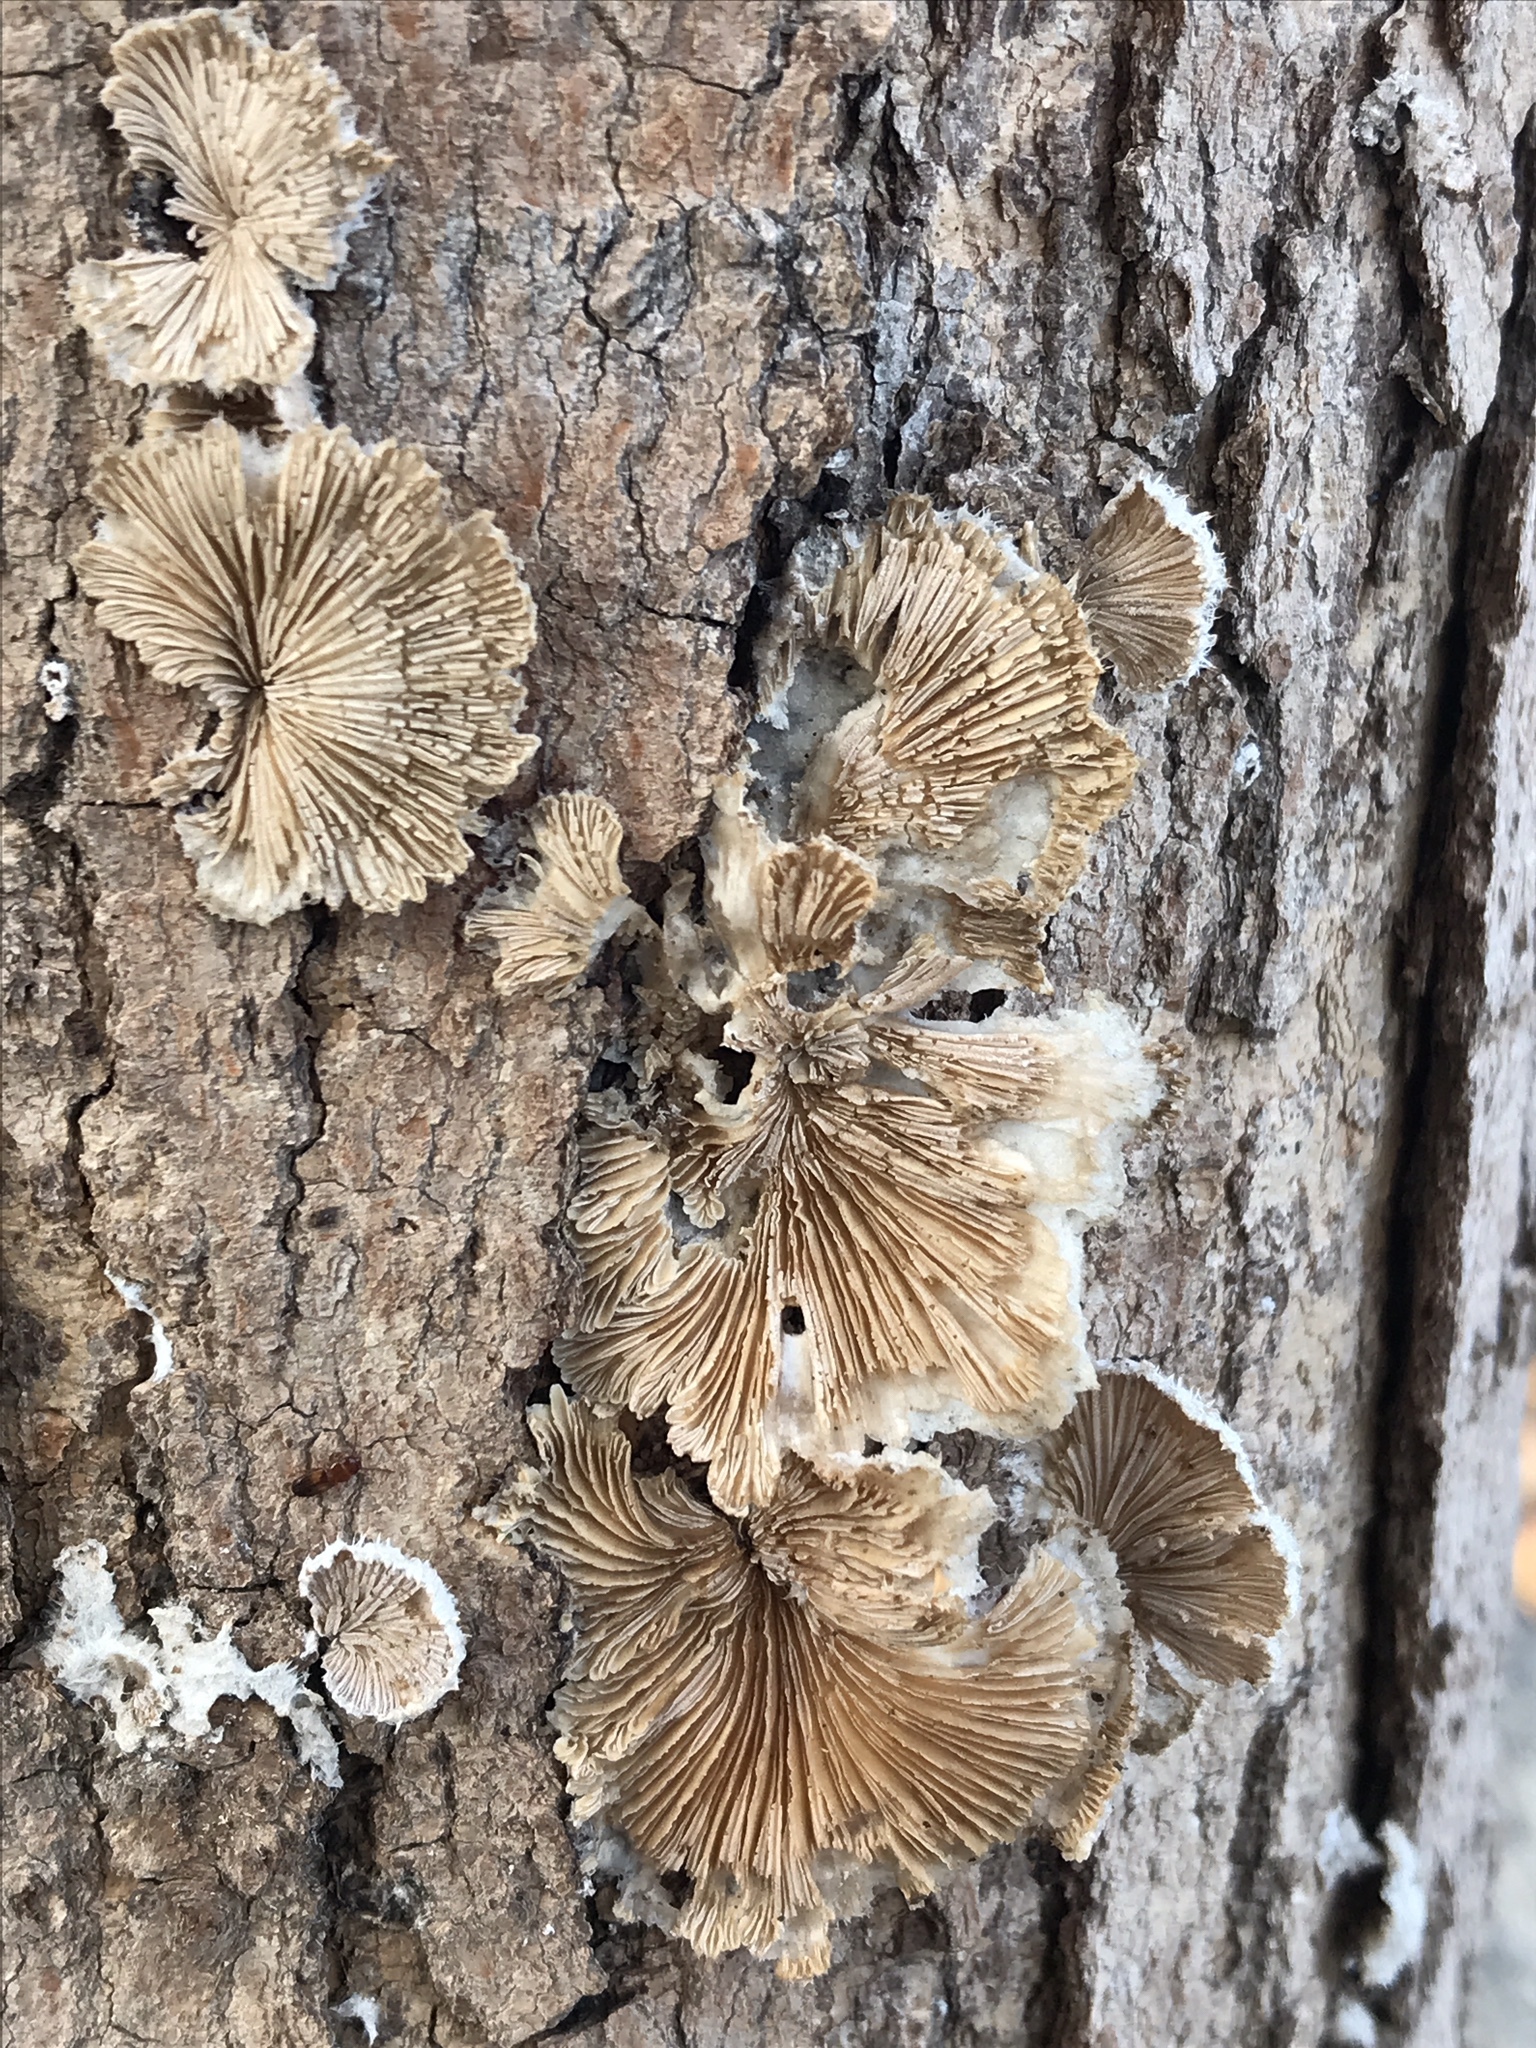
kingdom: Fungi
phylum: Basidiomycota
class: Agaricomycetes
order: Agaricales
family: Schizophyllaceae
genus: Schizophyllum
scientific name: Schizophyllum commune
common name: Common porecrust
